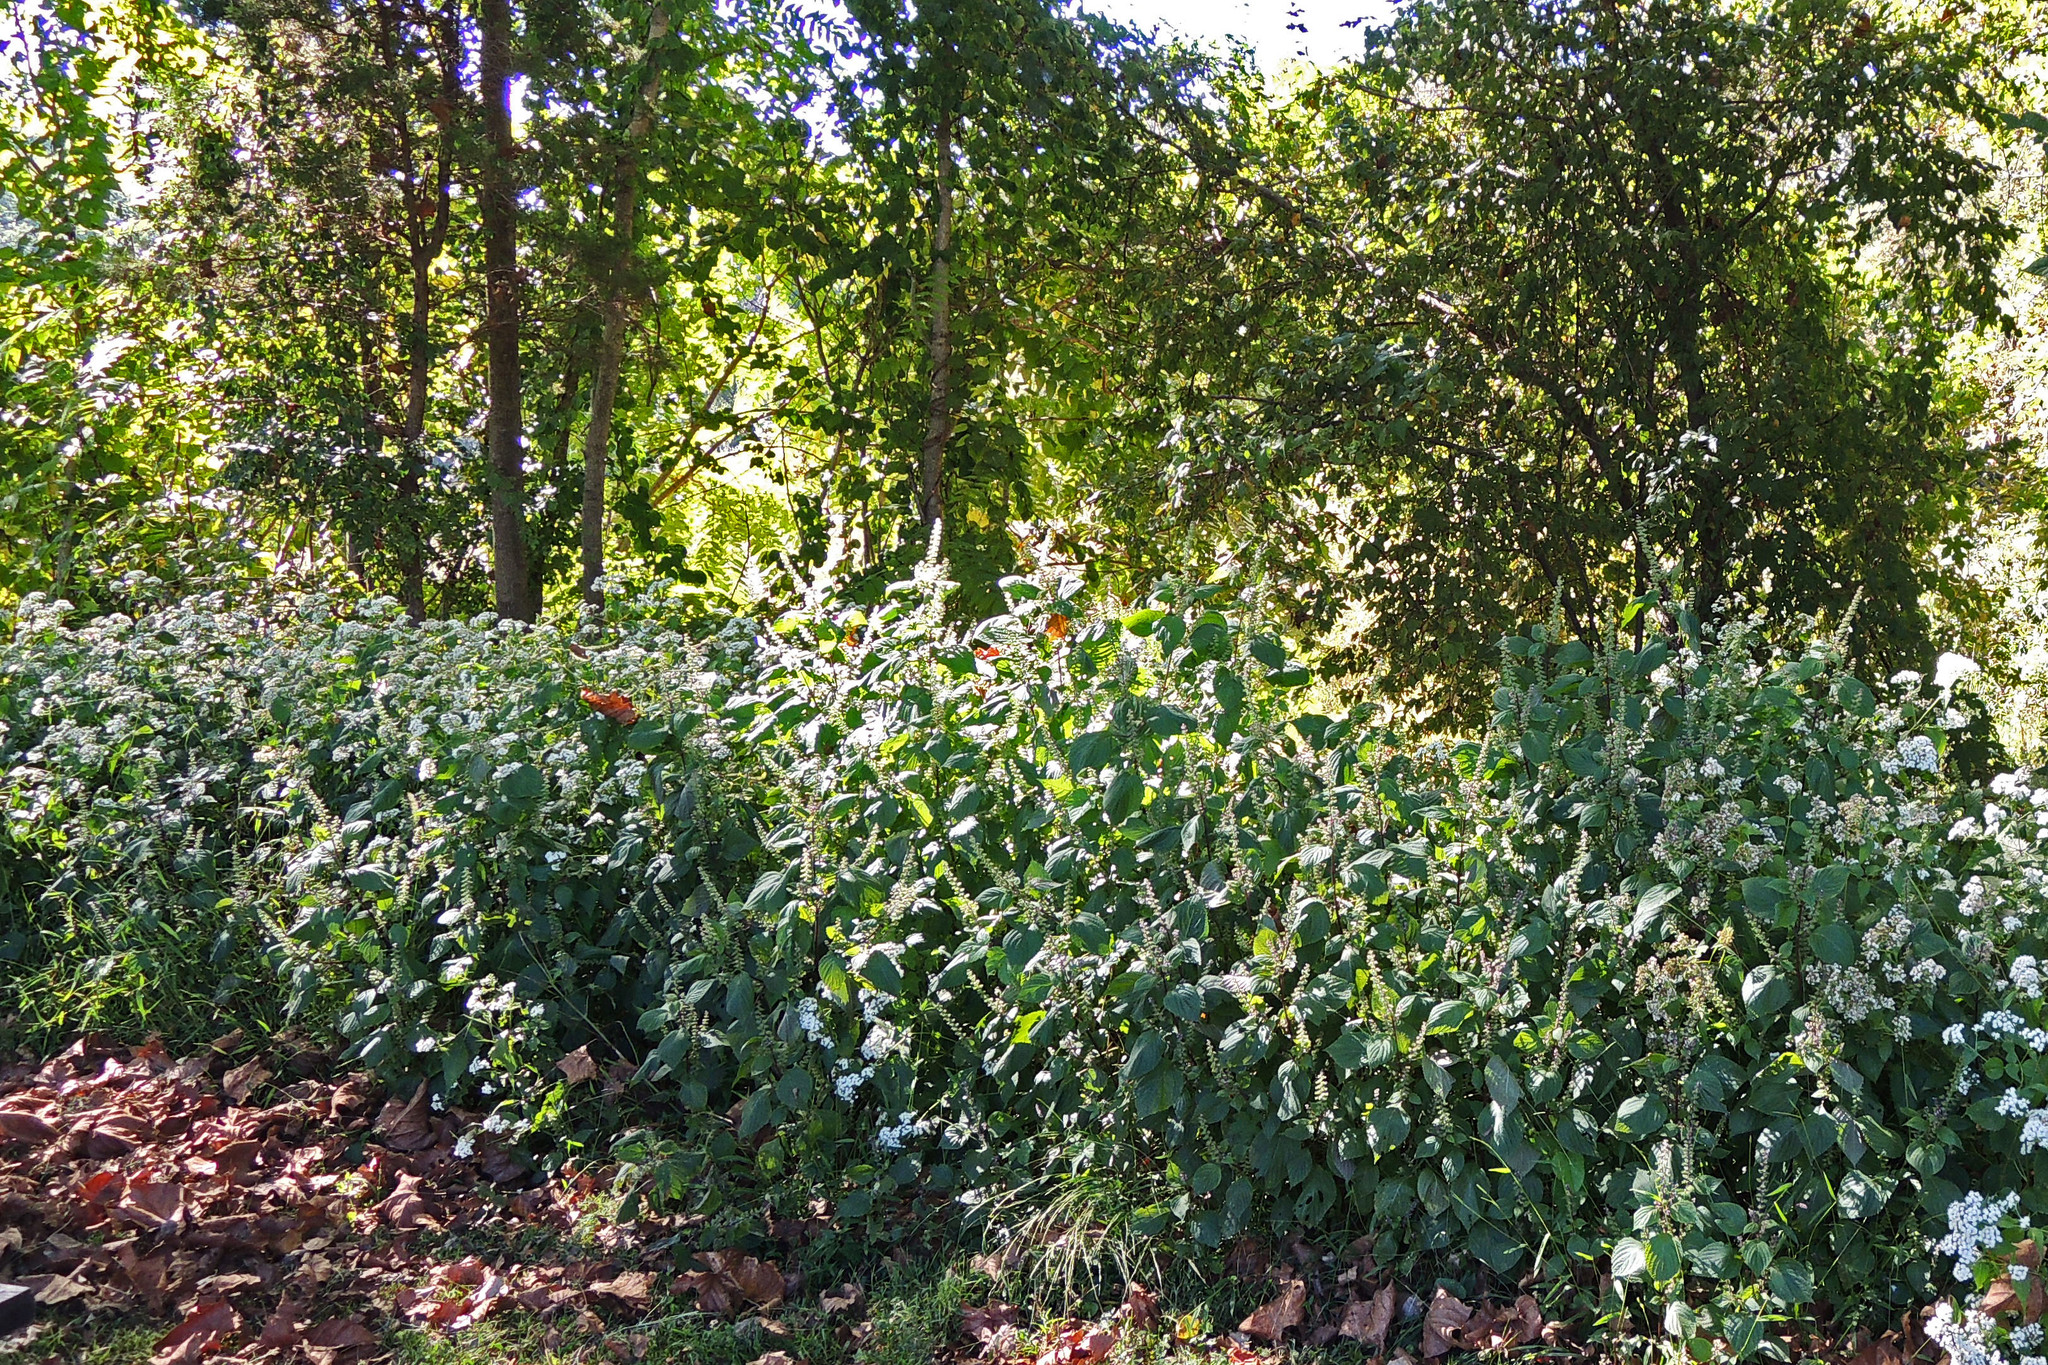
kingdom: Plantae
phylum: Tracheophyta
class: Magnoliopsida
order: Lamiales
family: Lamiaceae
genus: Perilla
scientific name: Perilla frutescens
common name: Perilla
